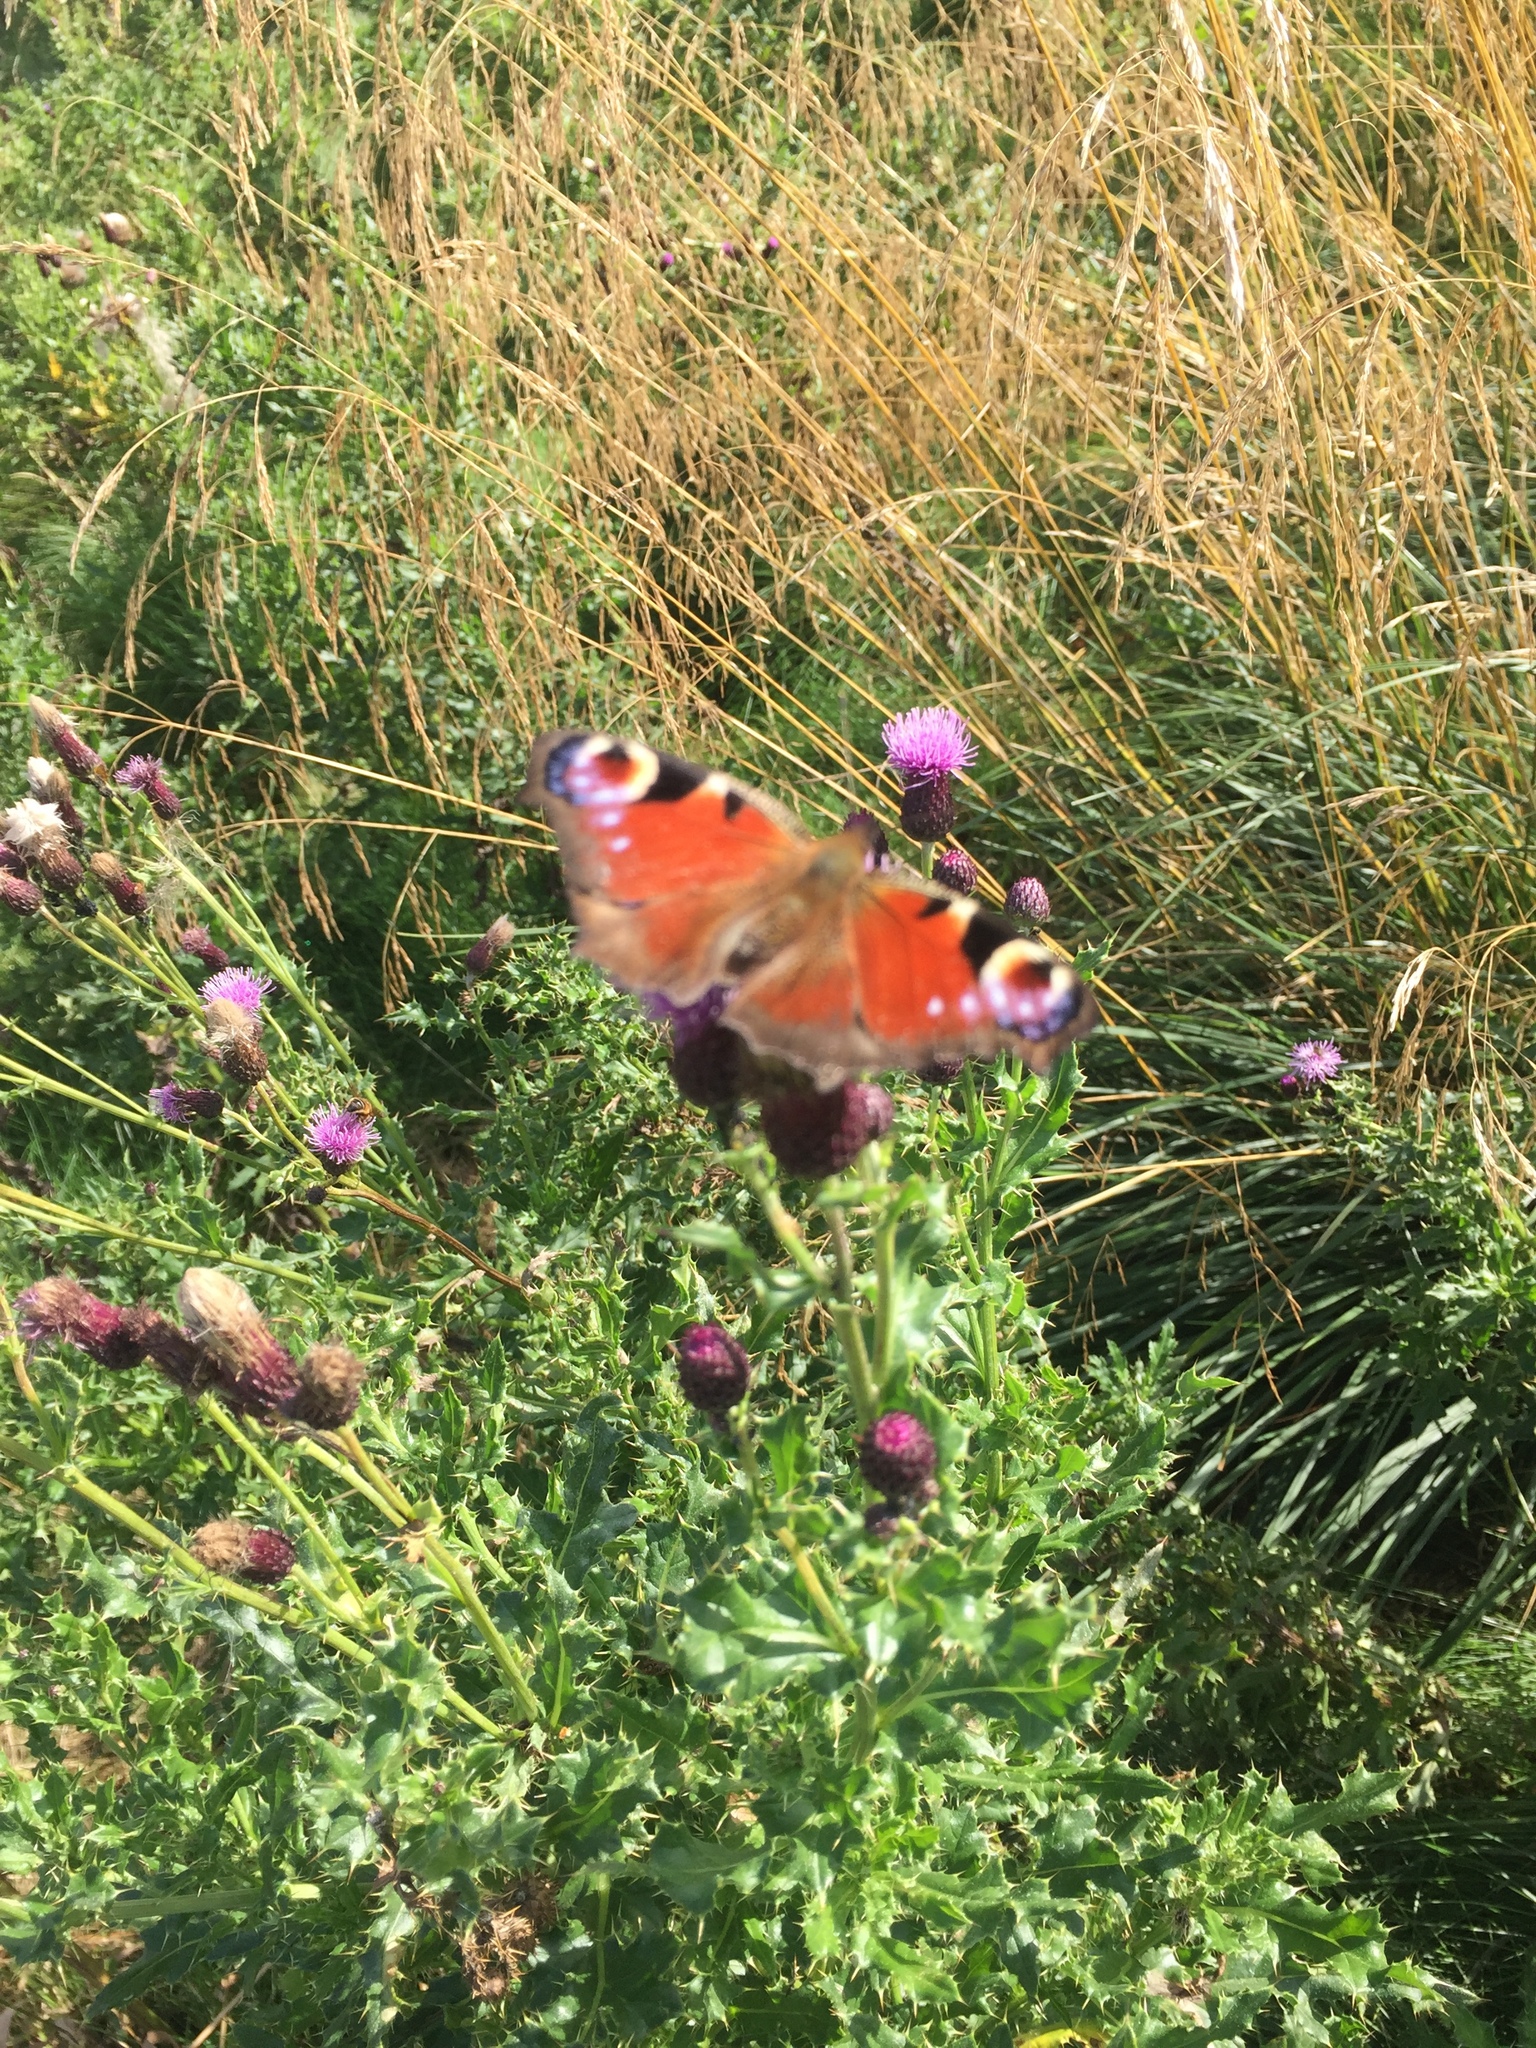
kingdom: Animalia
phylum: Arthropoda
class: Insecta
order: Lepidoptera
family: Nymphalidae
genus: Aglais
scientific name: Aglais io
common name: Peacock
